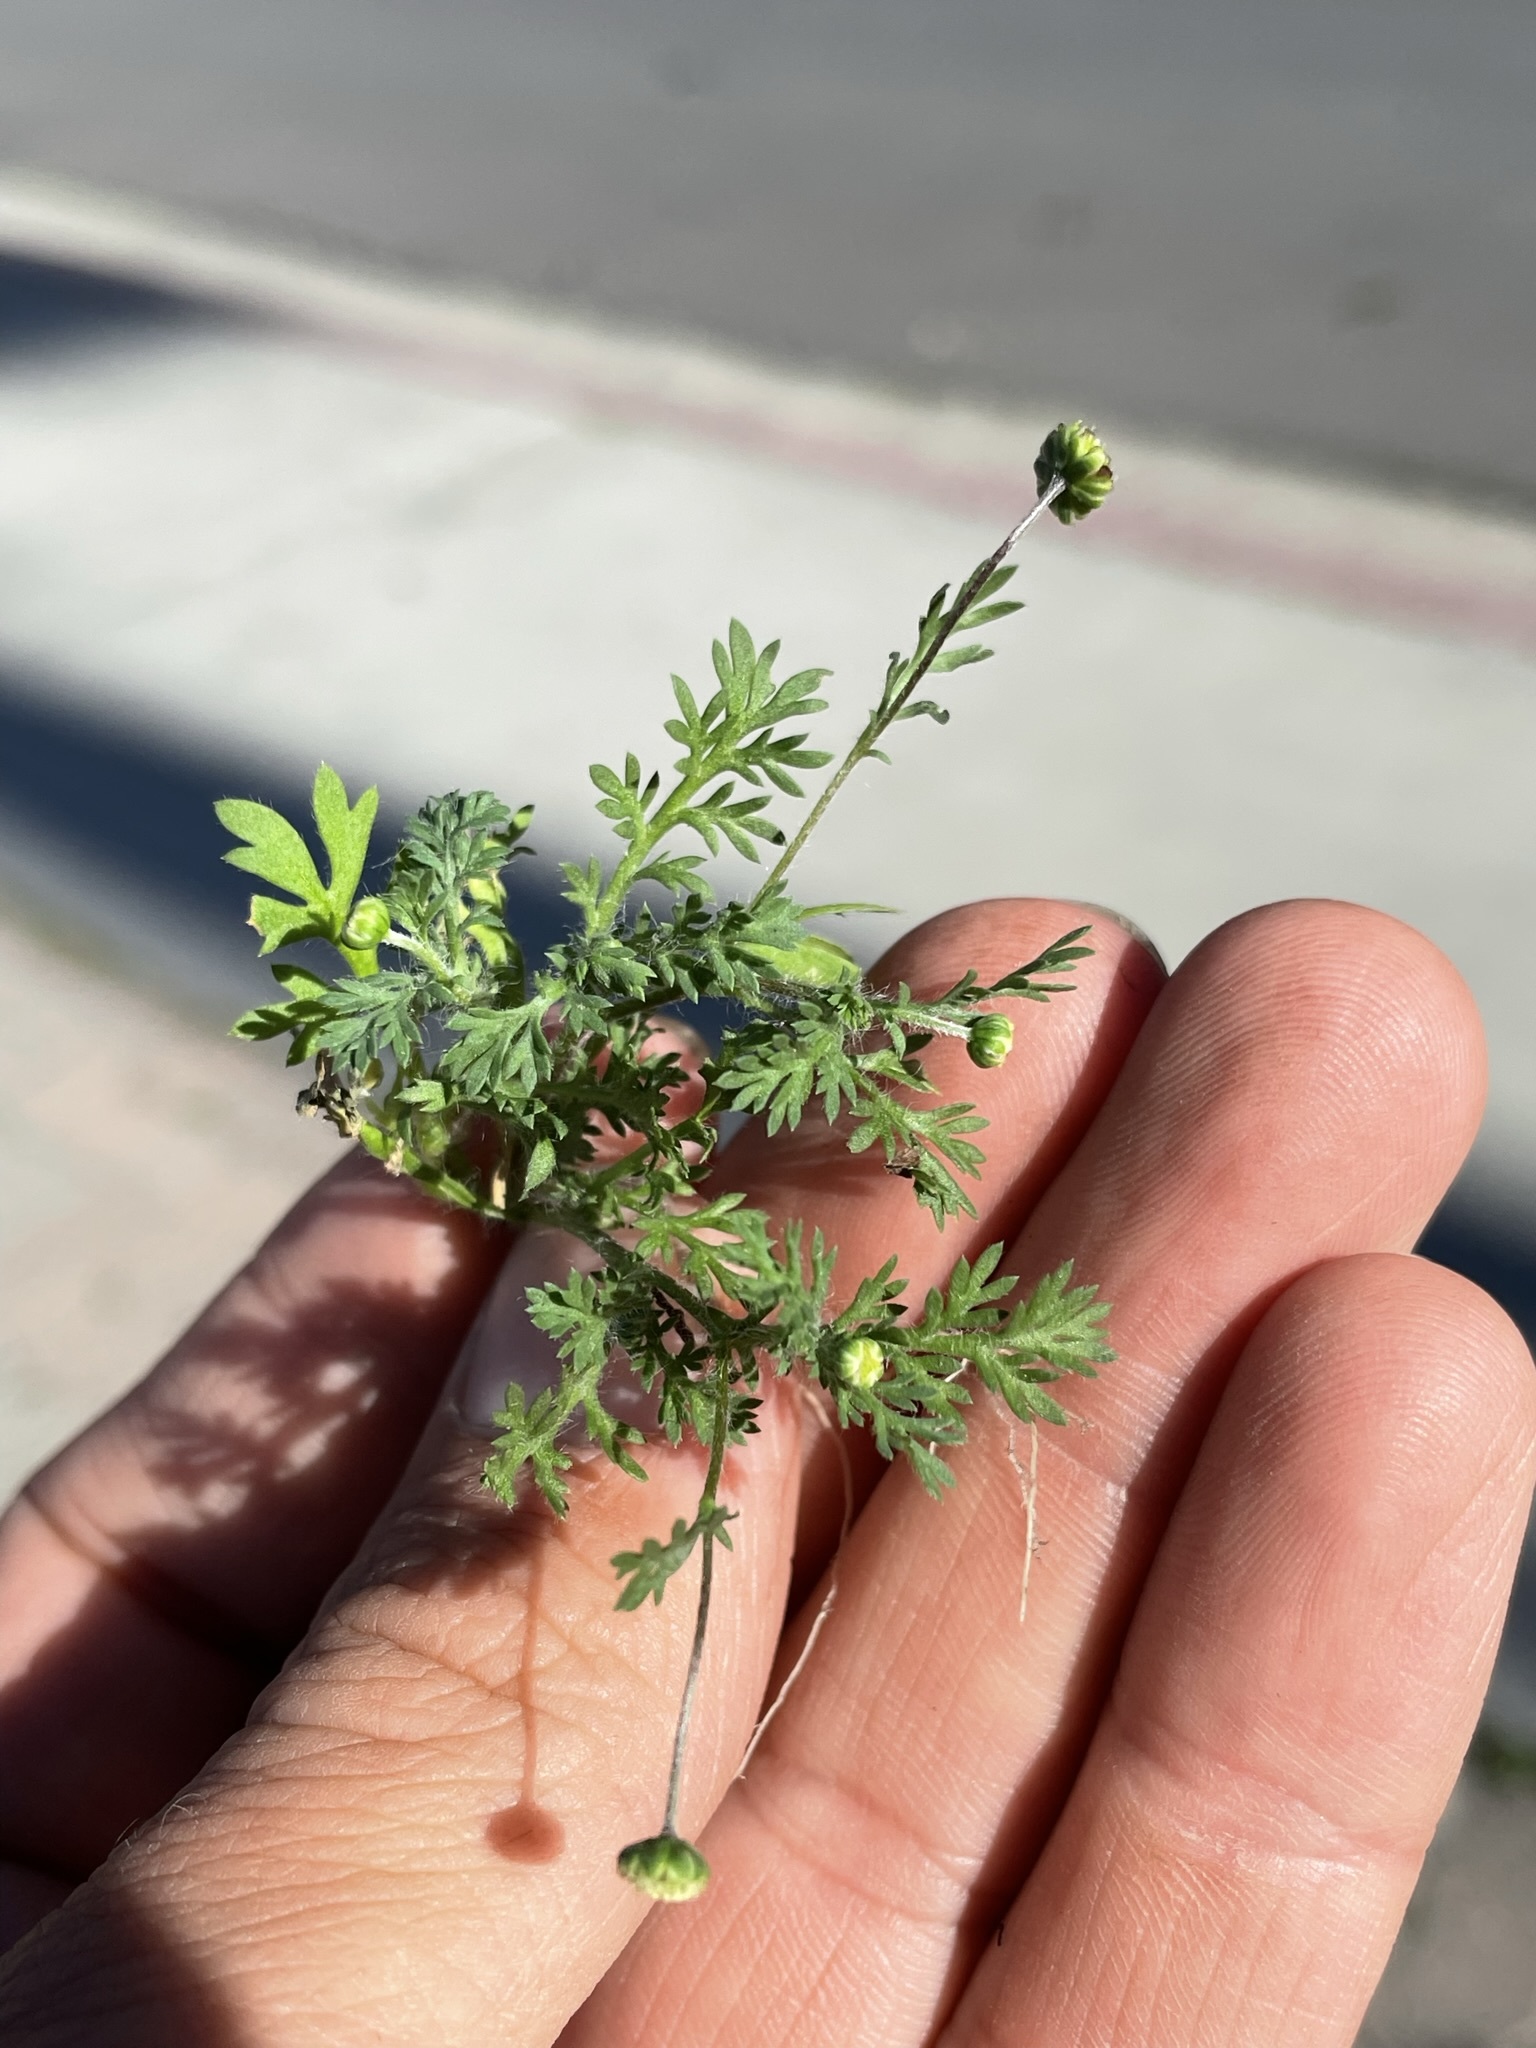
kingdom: Plantae
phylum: Tracheophyta
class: Magnoliopsida
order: Asterales
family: Asteraceae
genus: Cotula
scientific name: Cotula australis
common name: Australian waterbuttons
